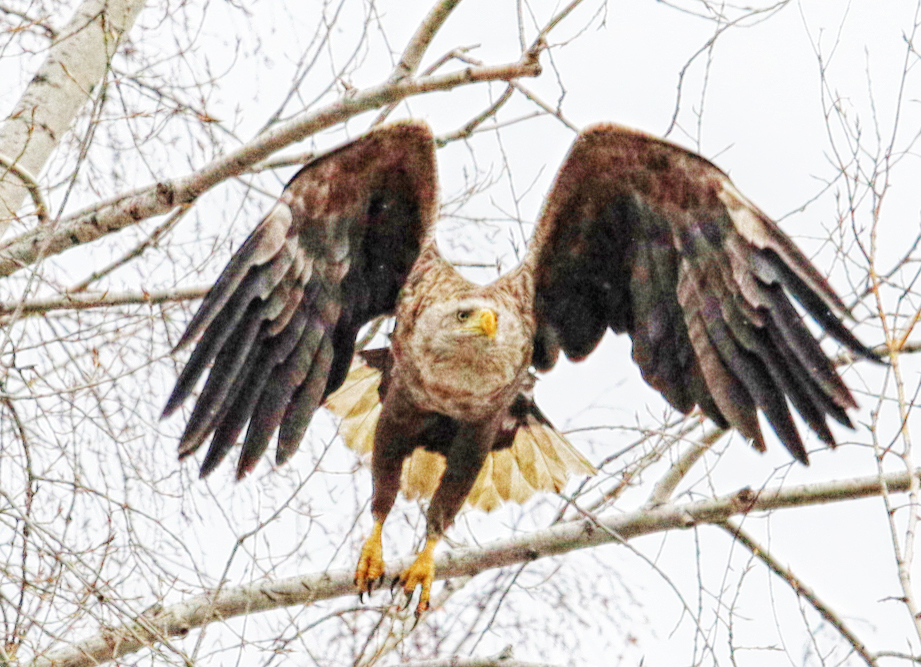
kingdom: Animalia
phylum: Chordata
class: Aves
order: Accipitriformes
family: Accipitridae
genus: Haliaeetus
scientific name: Haliaeetus albicilla
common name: White-tailed eagle
